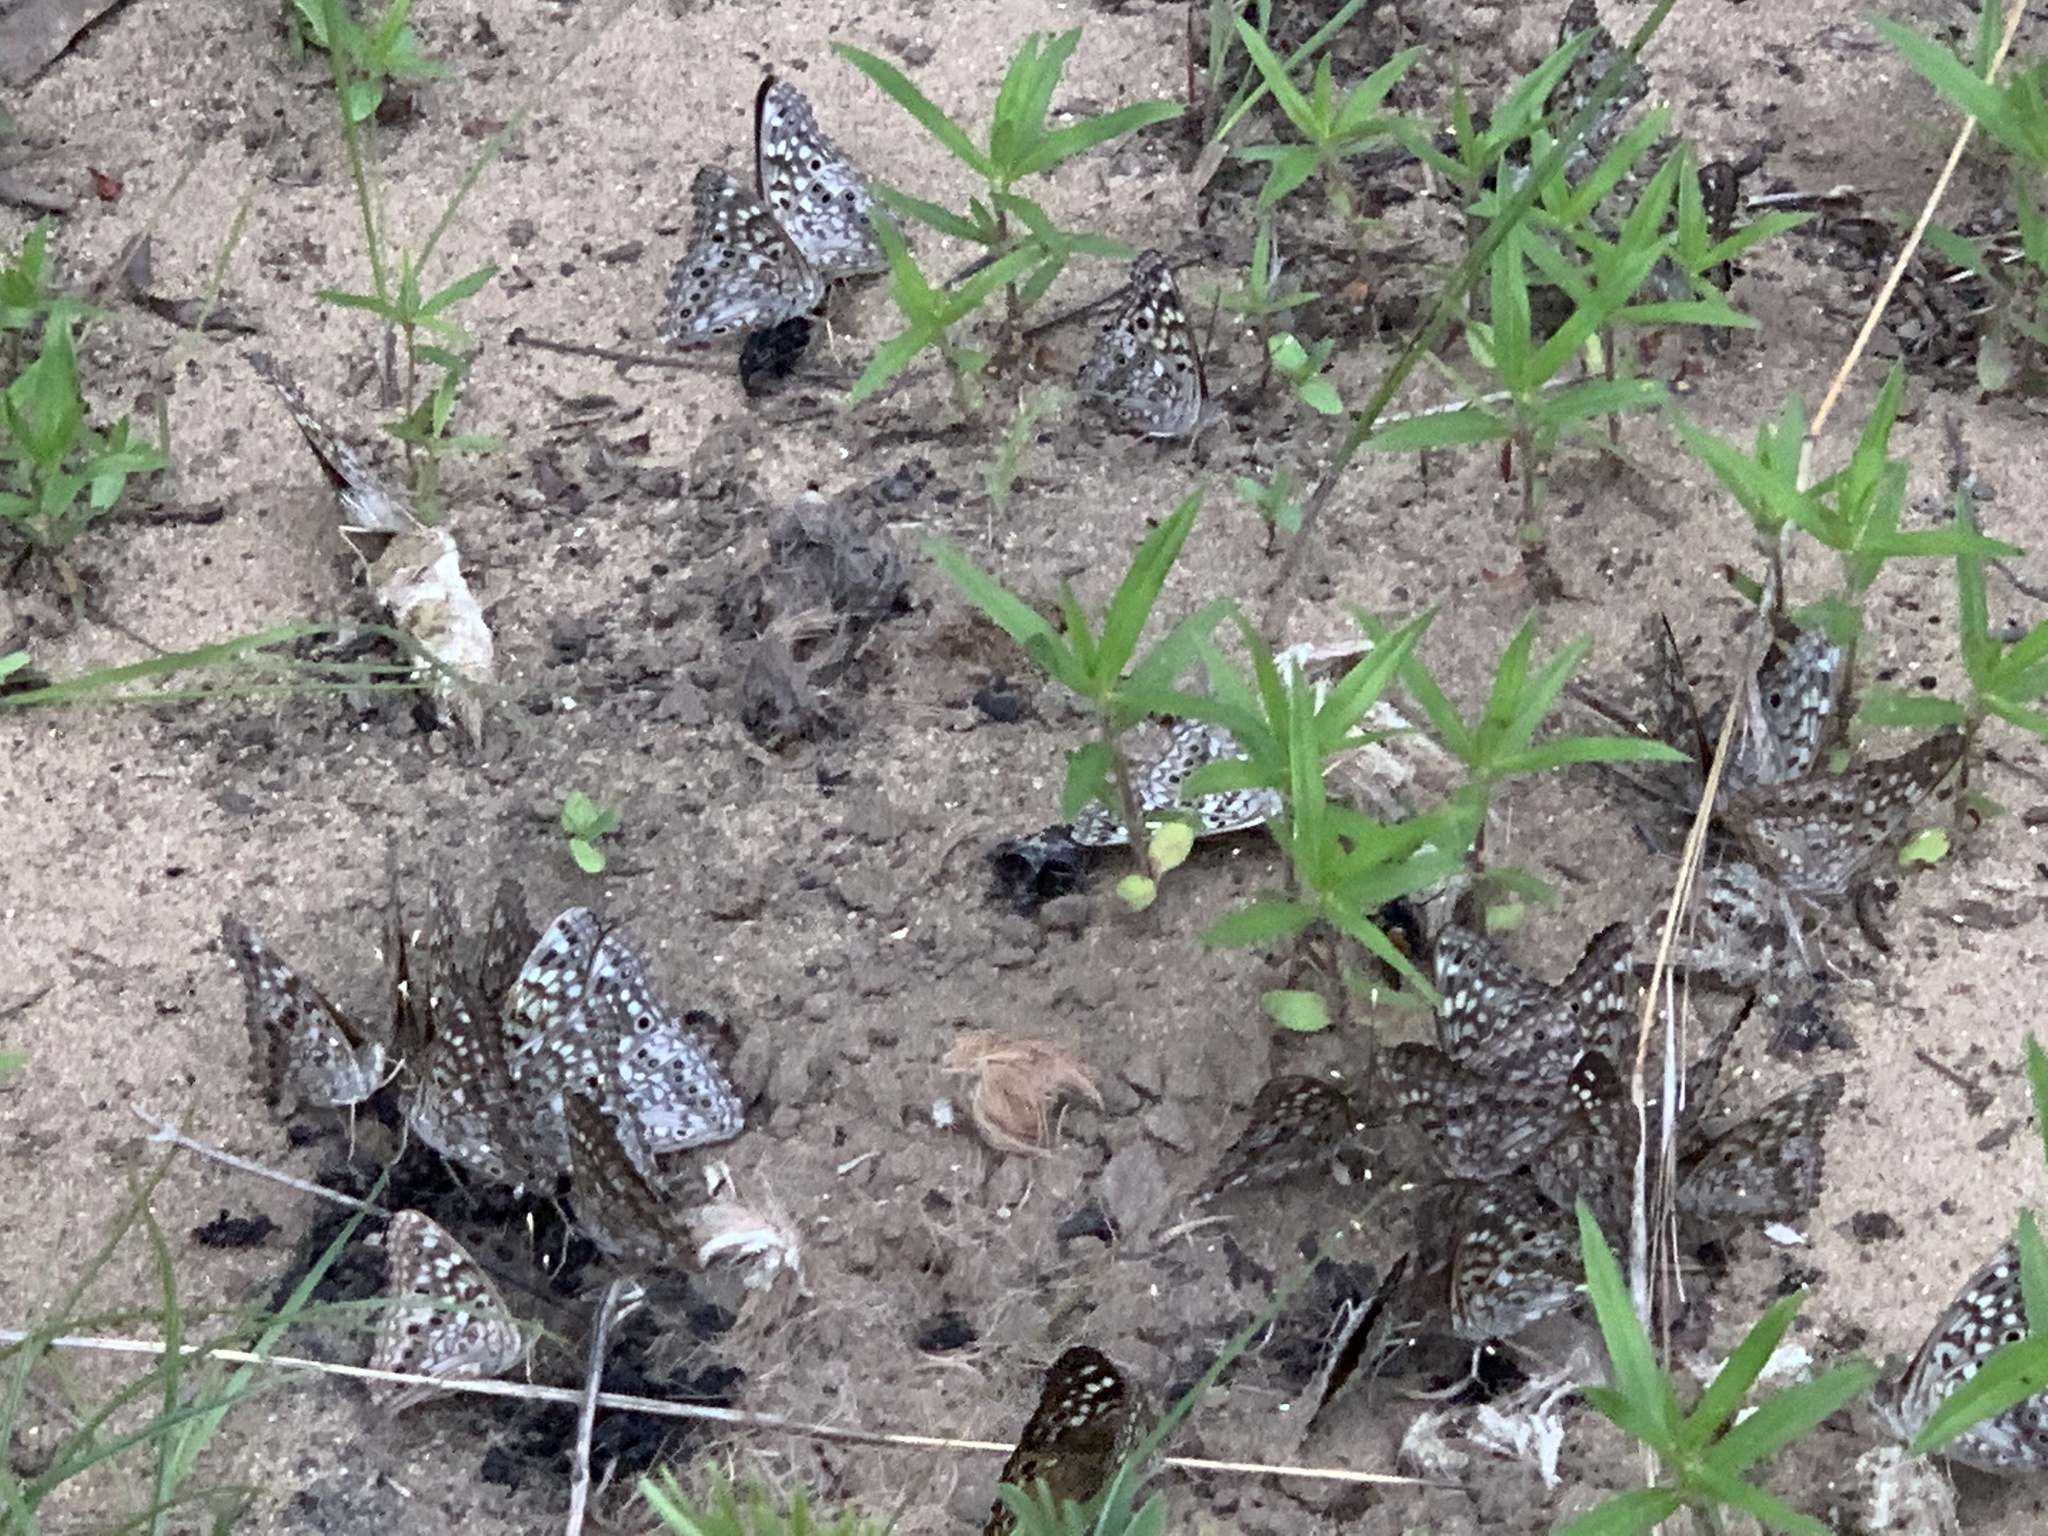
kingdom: Animalia
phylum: Arthropoda
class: Insecta
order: Lepidoptera
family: Nymphalidae
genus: Asterocampa
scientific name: Asterocampa celtis
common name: Hackberry emperor
